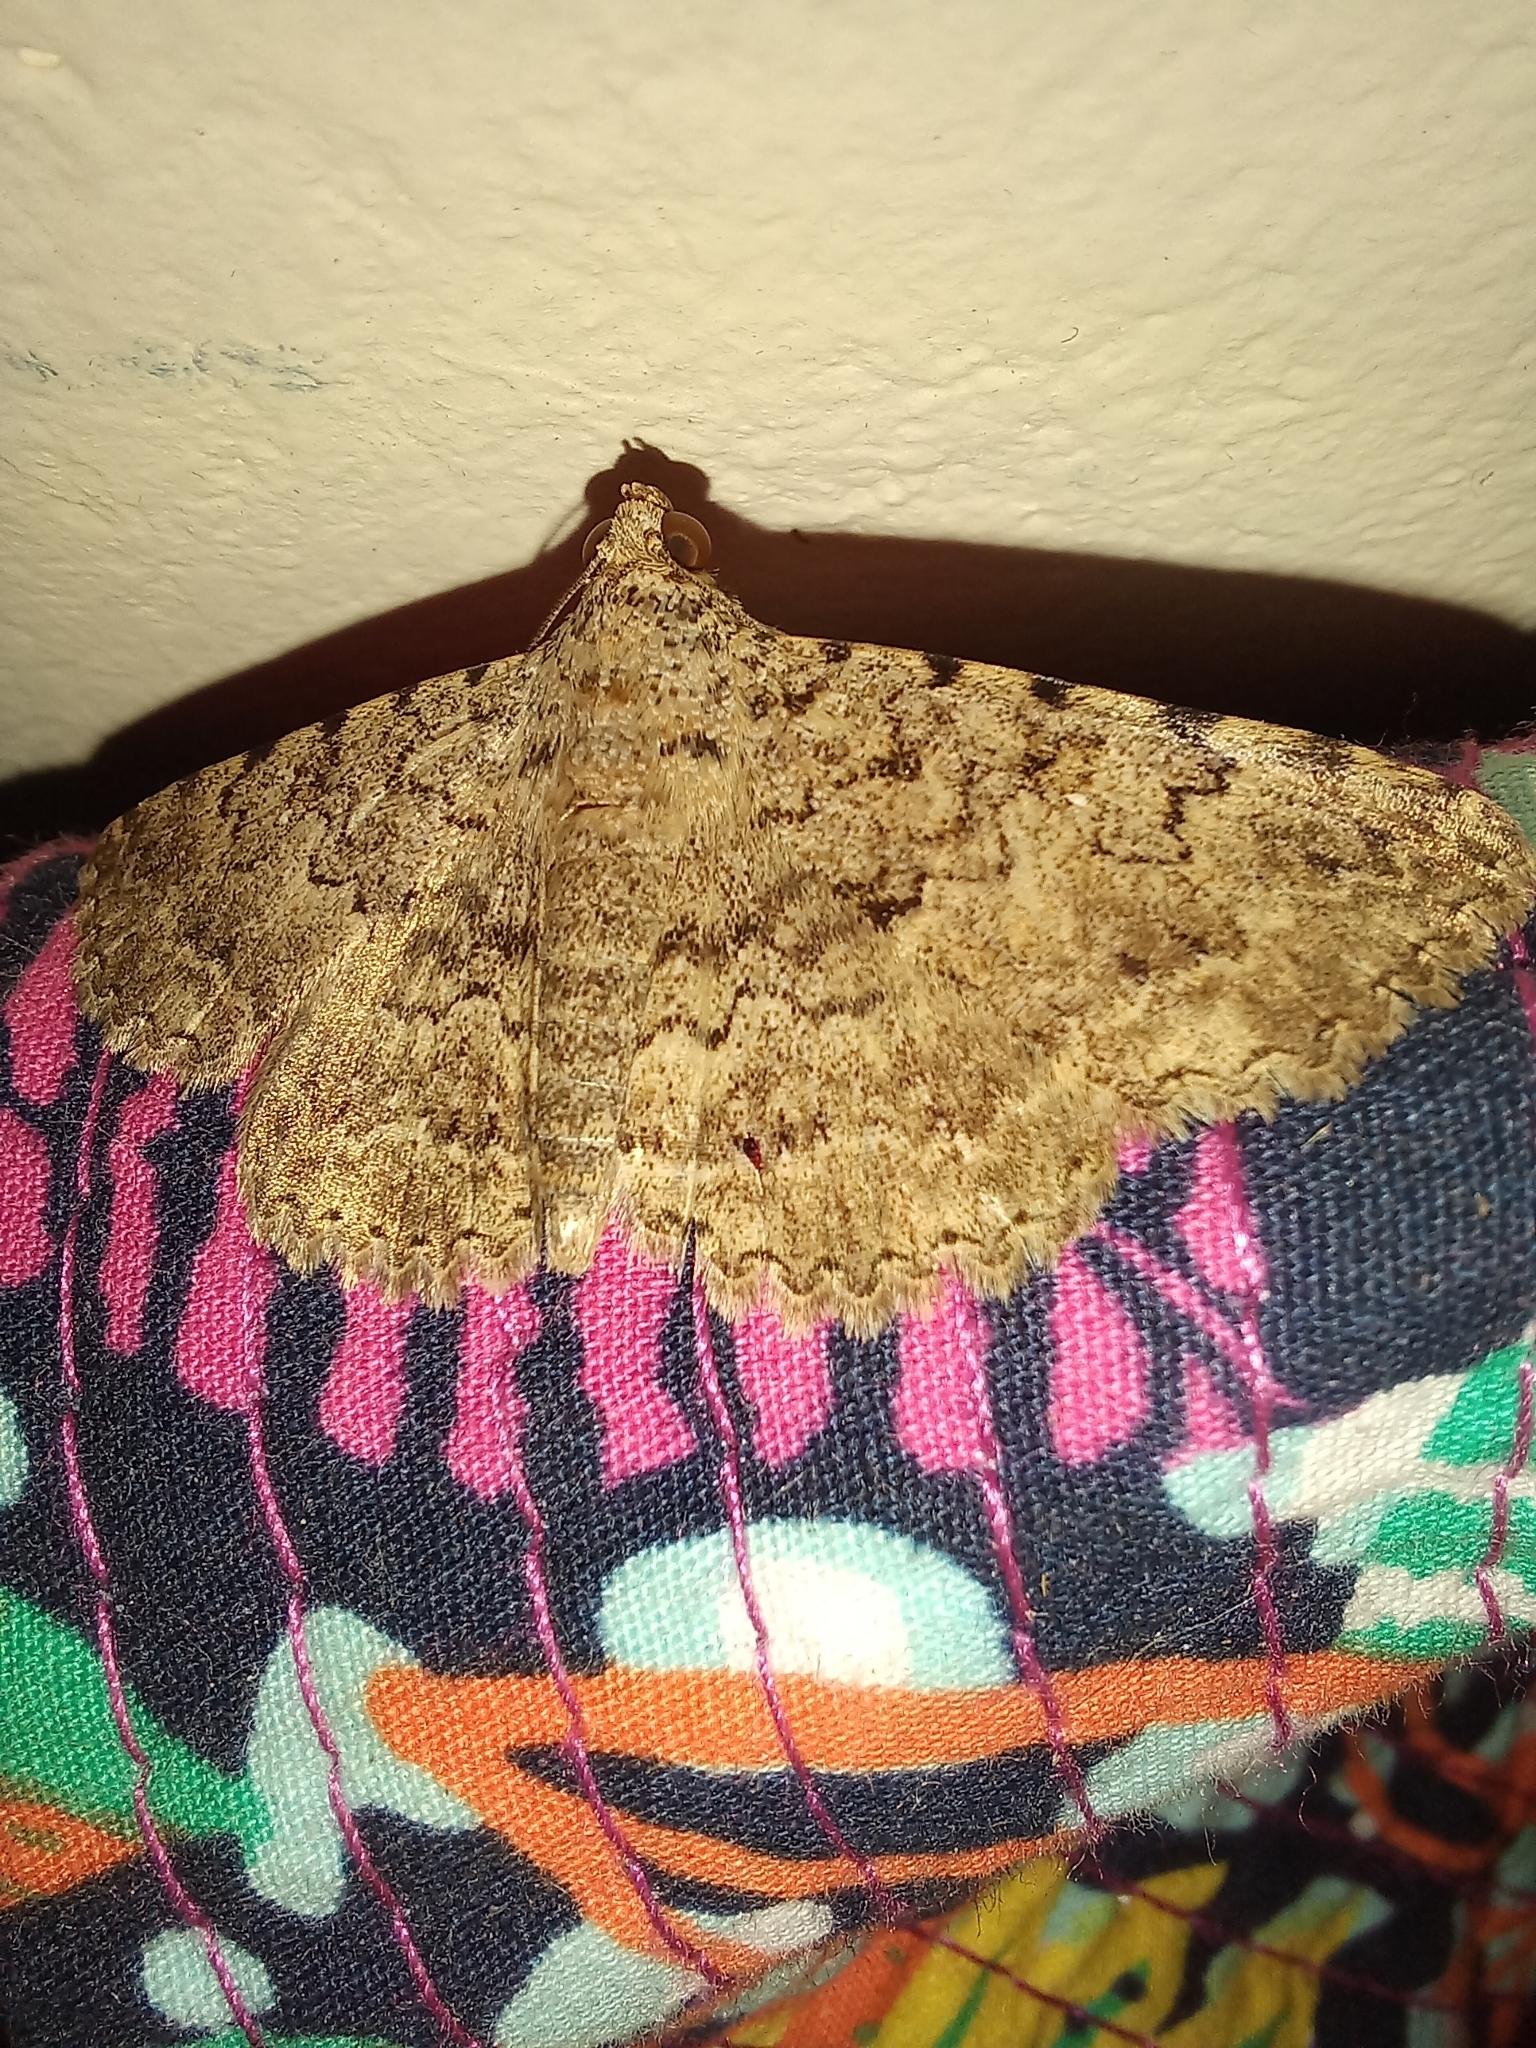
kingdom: Animalia
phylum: Arthropoda
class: Insecta
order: Lepidoptera
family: Erebidae
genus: Polydesma
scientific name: Polydesma umbricola
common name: Monkeypod moth
